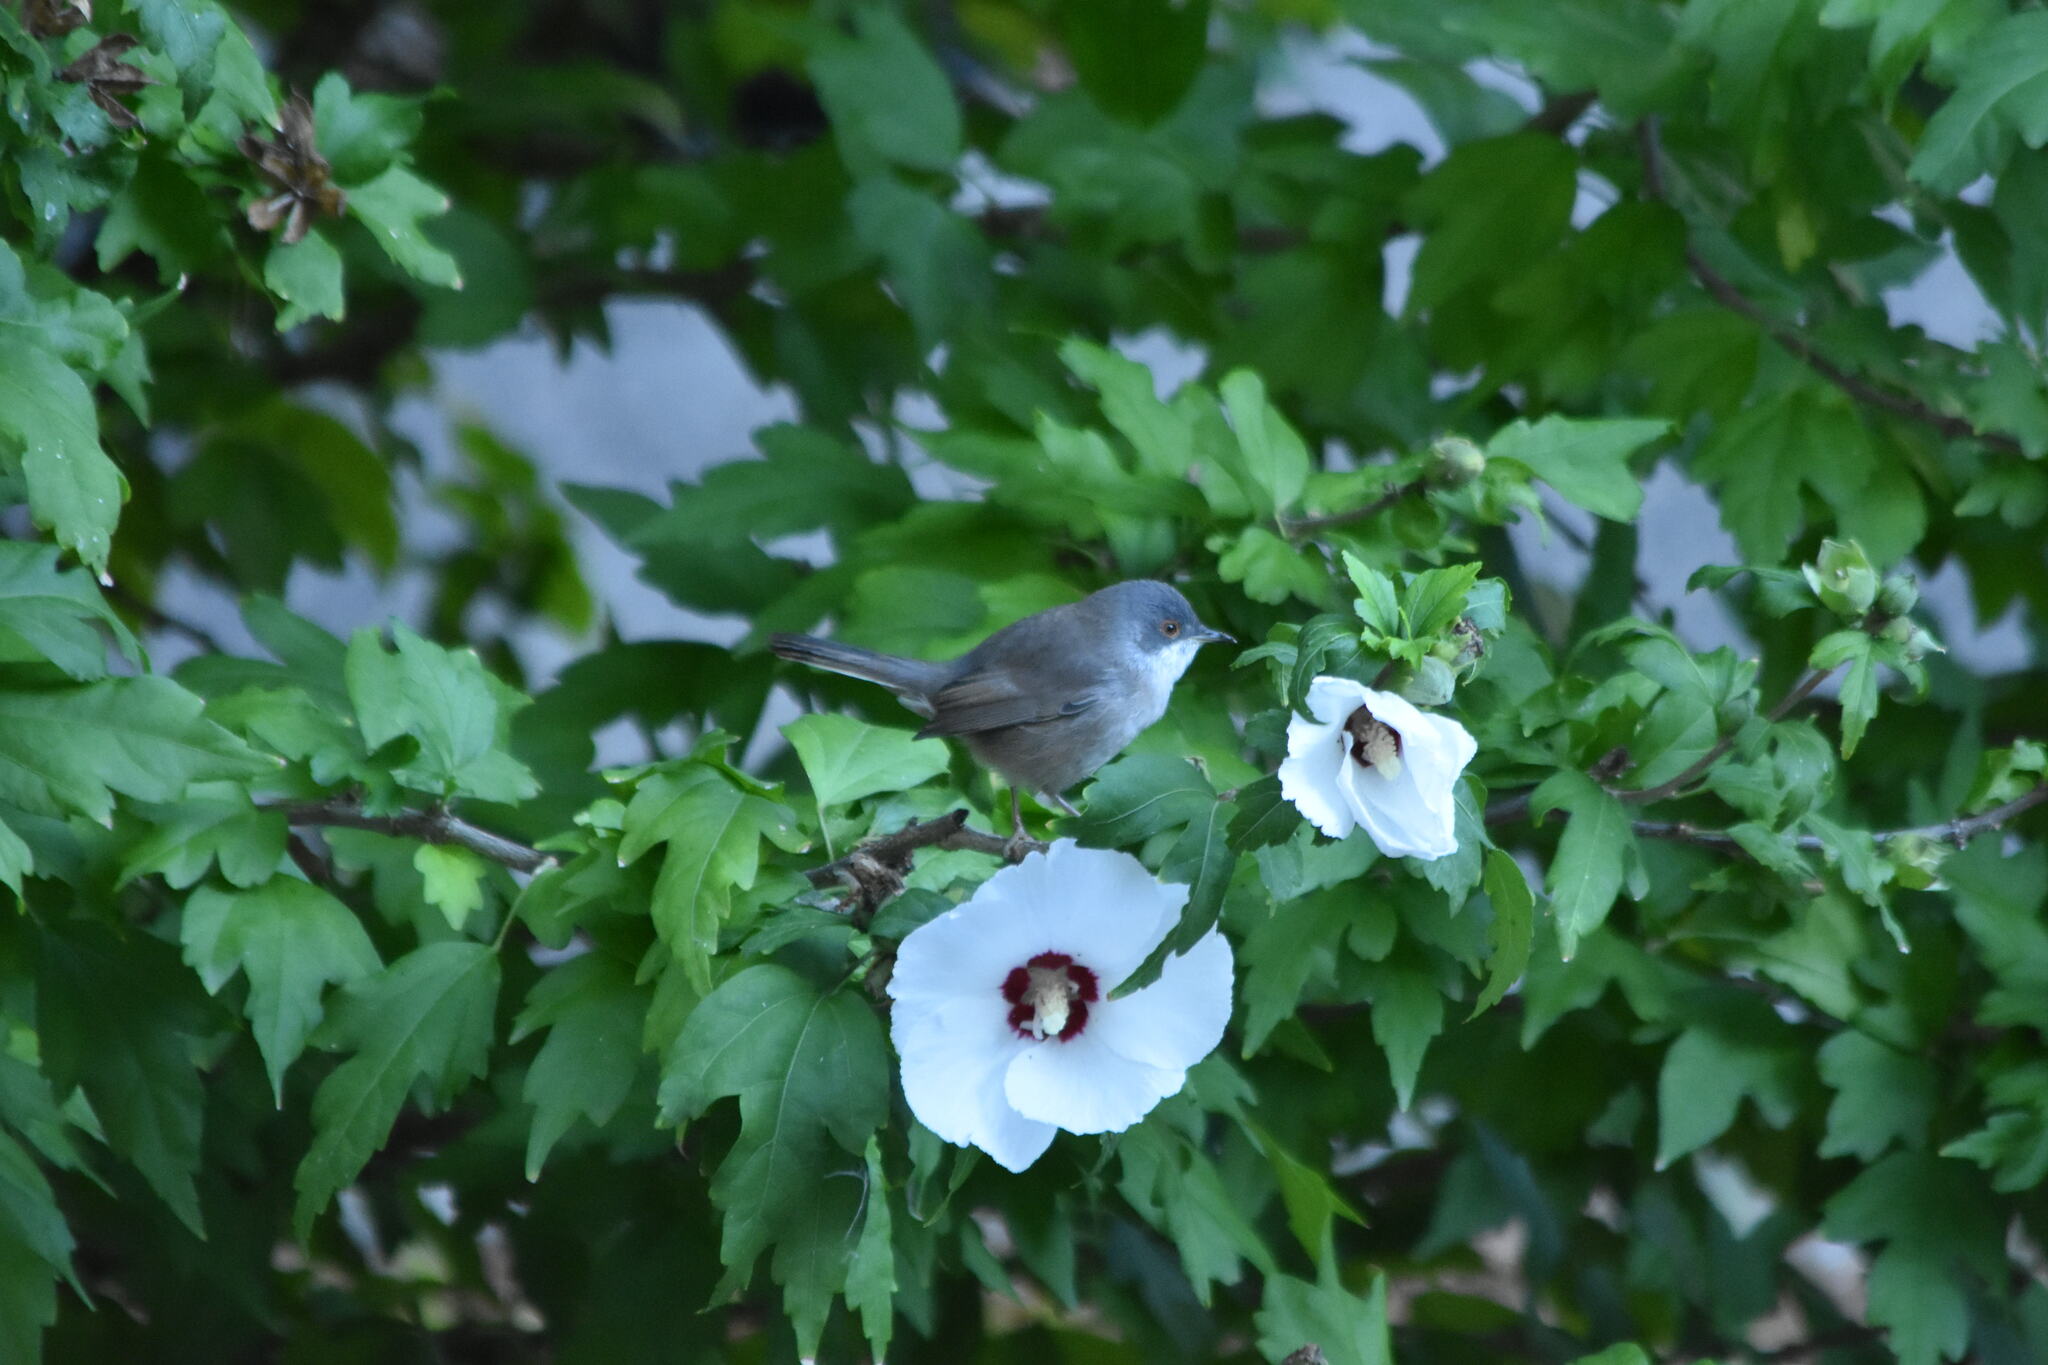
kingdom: Animalia
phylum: Chordata
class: Aves
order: Passeriformes
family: Sylviidae
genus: Curruca
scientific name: Curruca melanocephala
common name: Sardinian warbler
